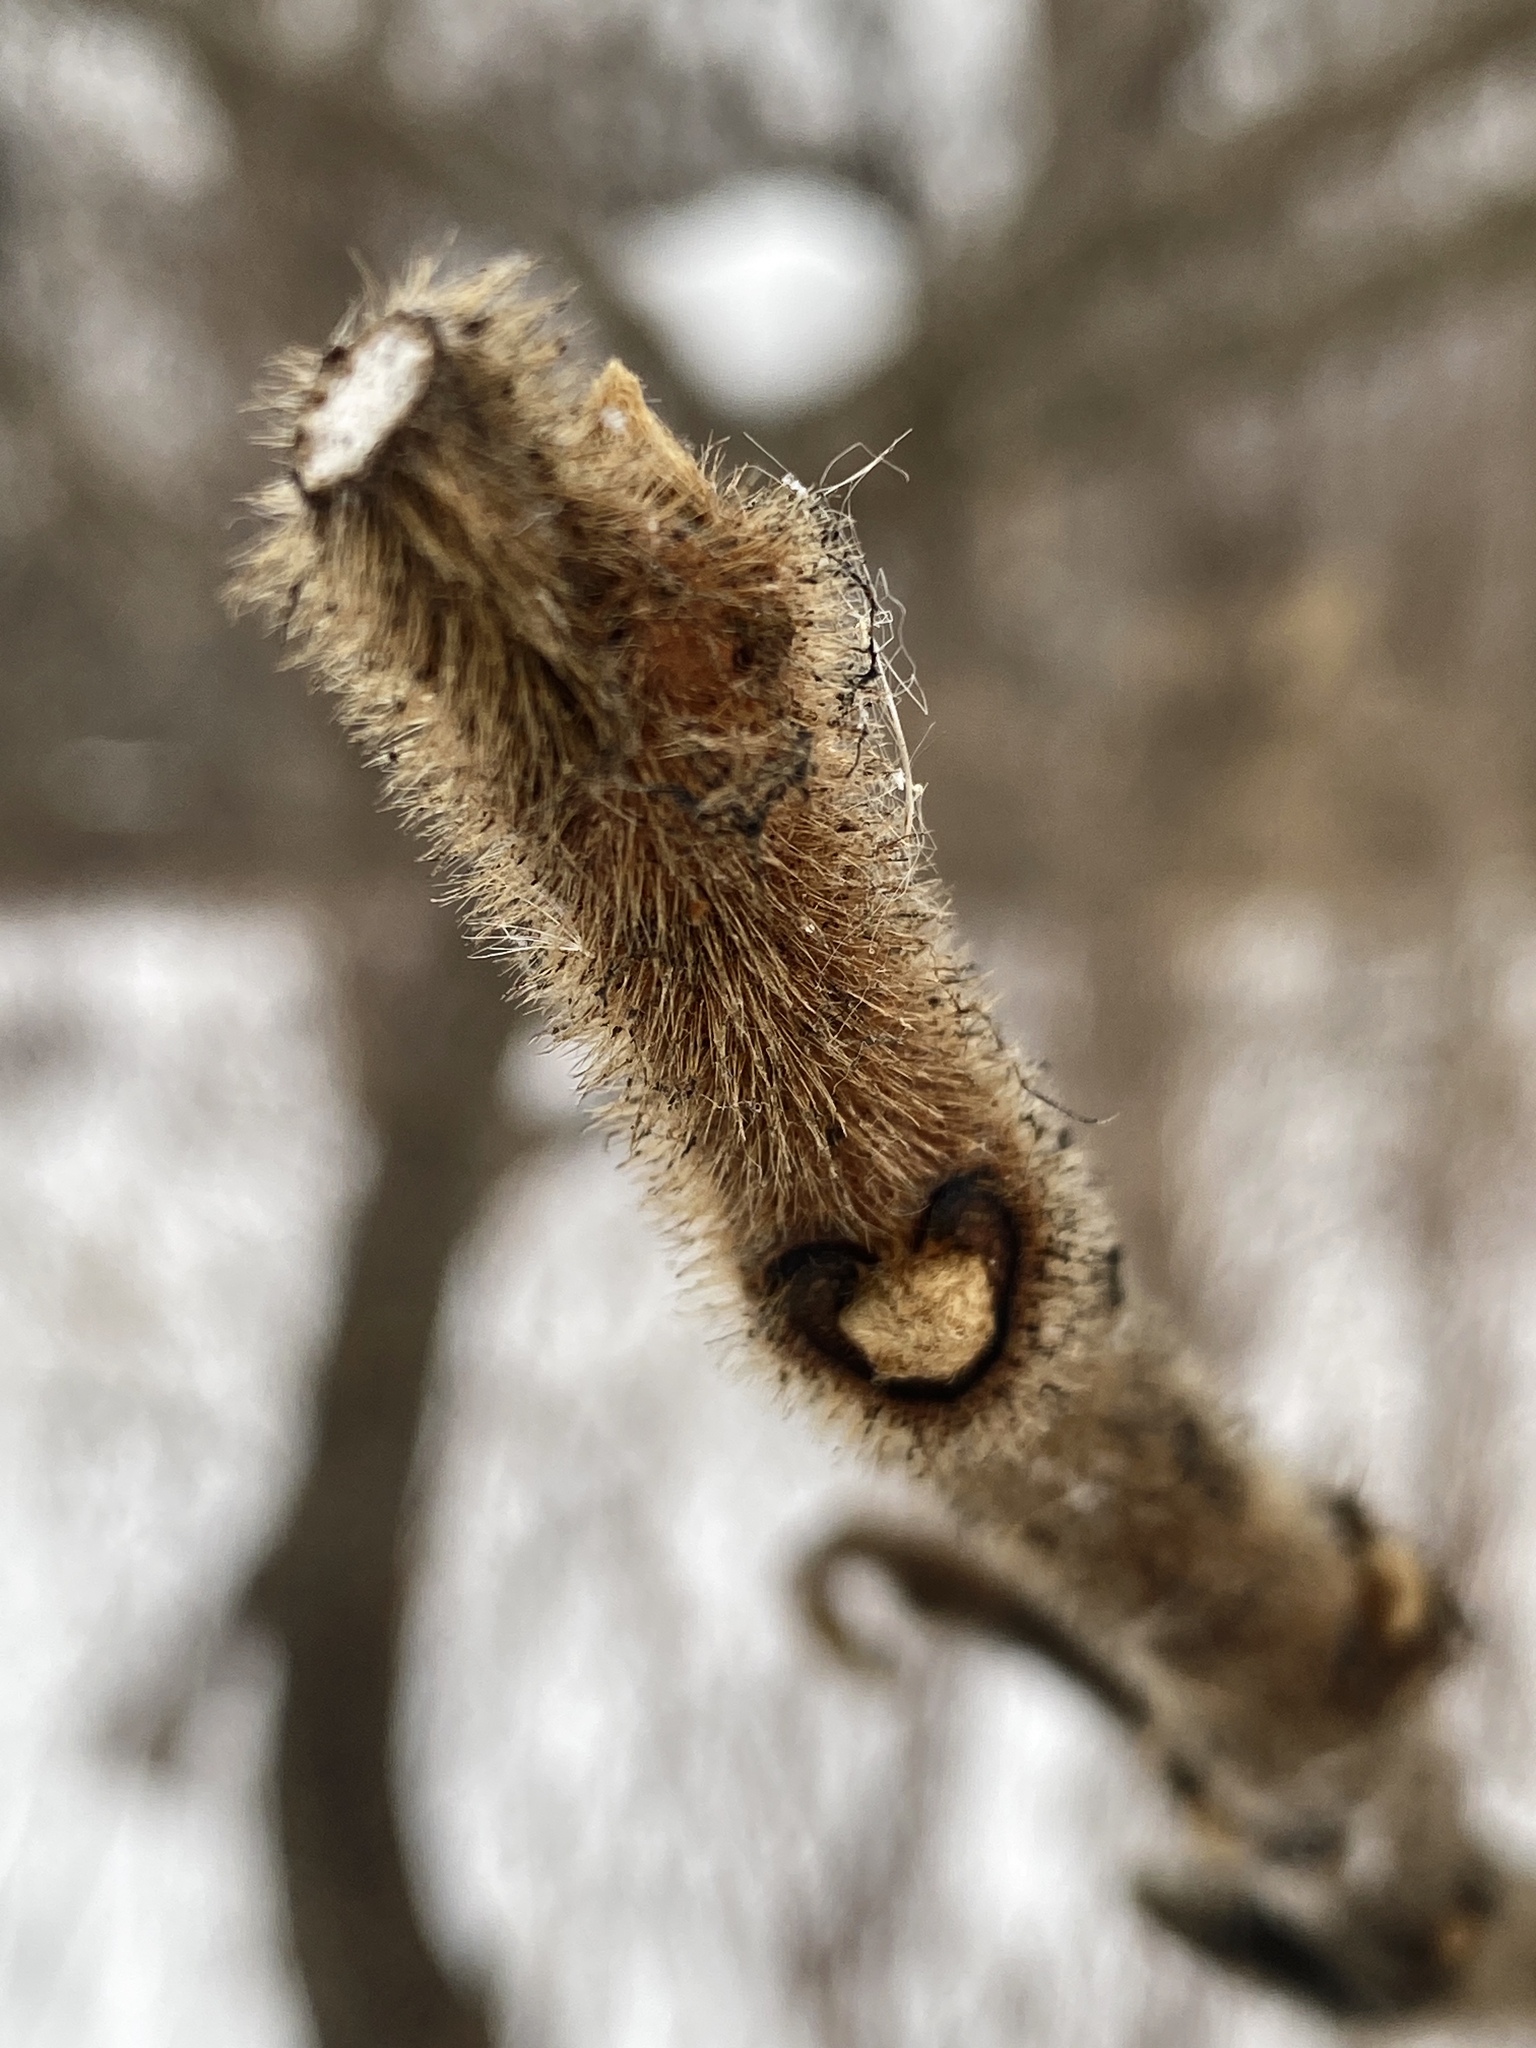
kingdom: Plantae
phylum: Tracheophyta
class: Magnoliopsida
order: Sapindales
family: Anacardiaceae
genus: Rhus
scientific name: Rhus typhina
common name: Staghorn sumac
